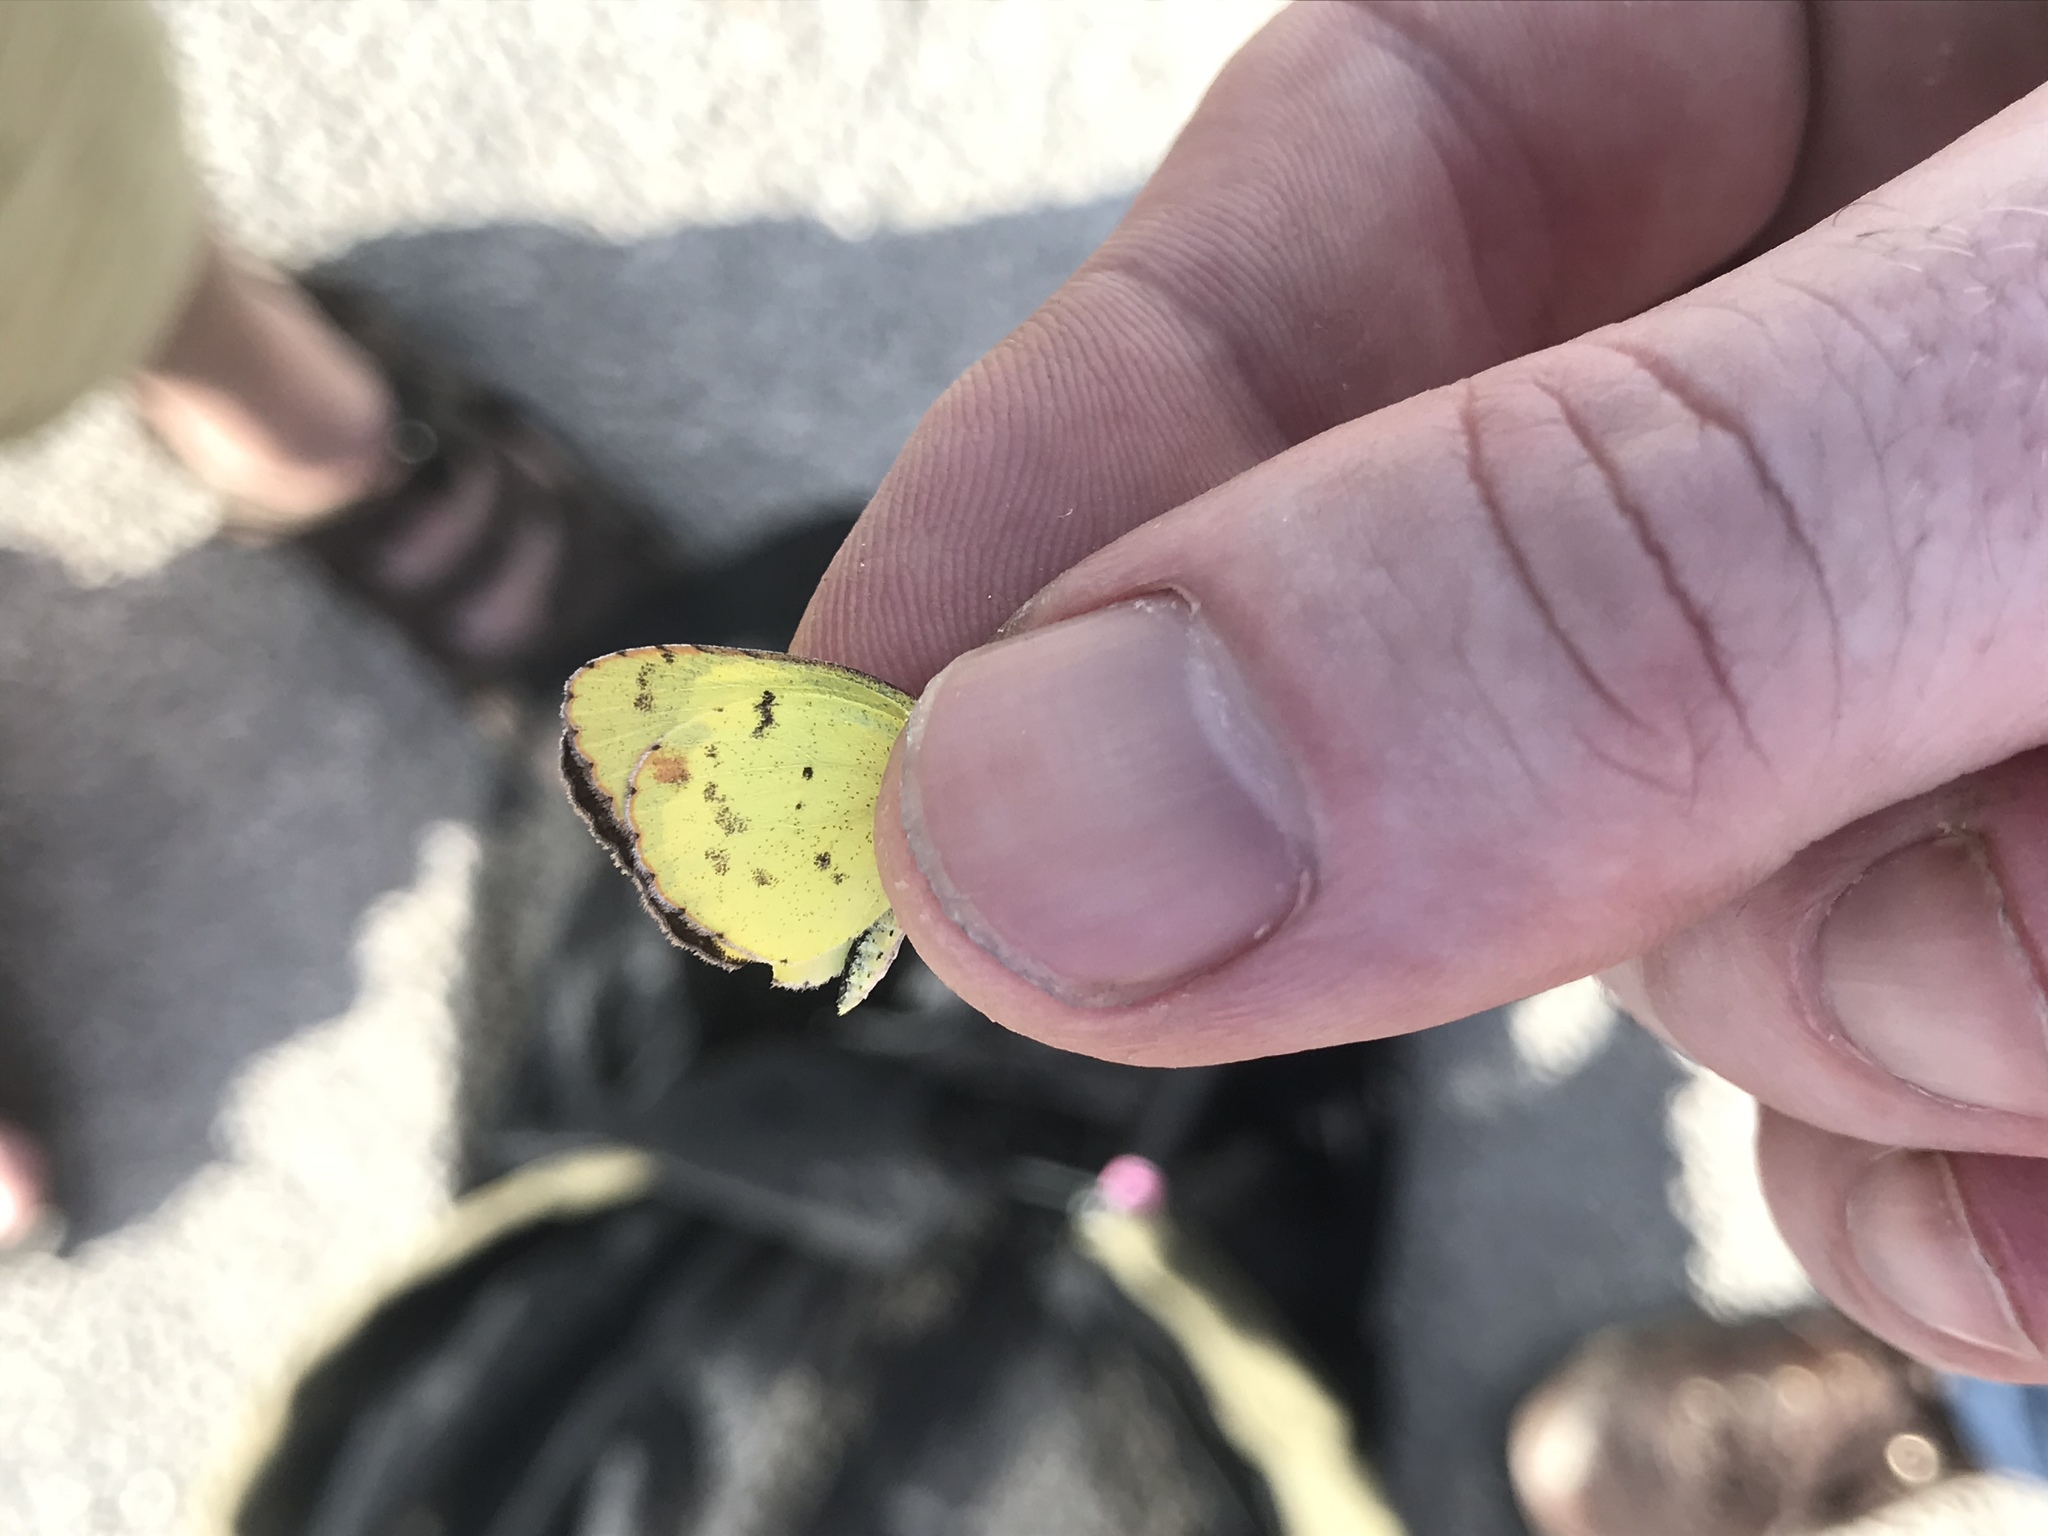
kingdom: Animalia
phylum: Arthropoda
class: Insecta
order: Lepidoptera
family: Pieridae
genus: Pyrisitia
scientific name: Pyrisitia lisa
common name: Little yellow
